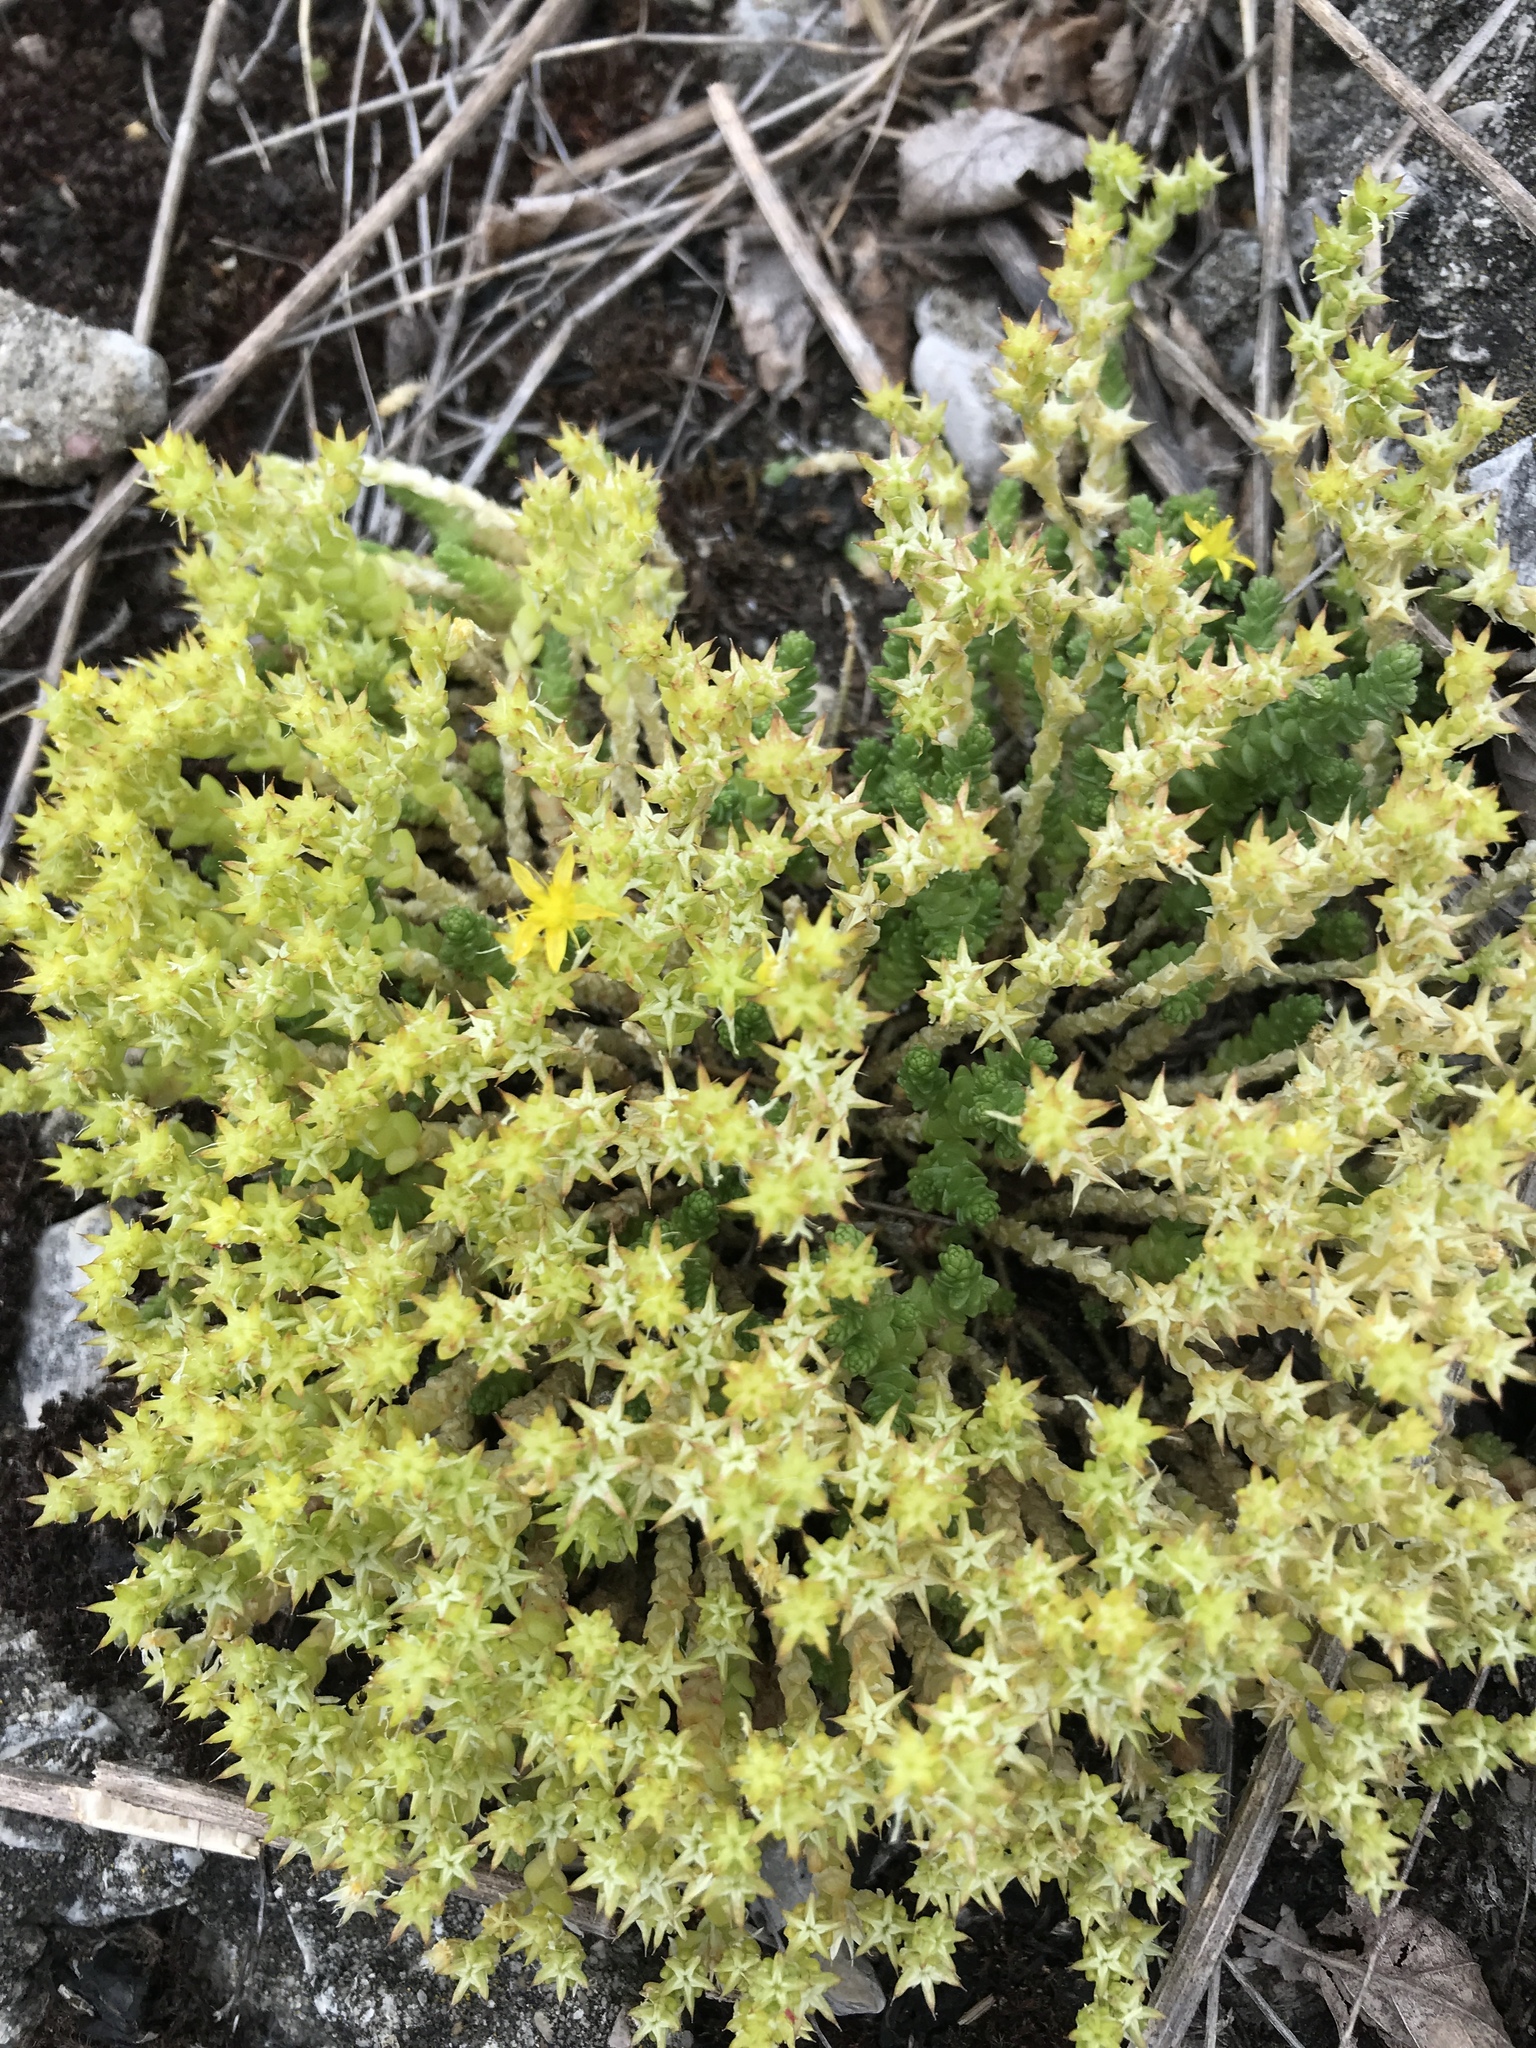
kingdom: Plantae
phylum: Tracheophyta
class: Magnoliopsida
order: Saxifragales
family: Crassulaceae
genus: Sedum
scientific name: Sedum acre
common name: Biting stonecrop
